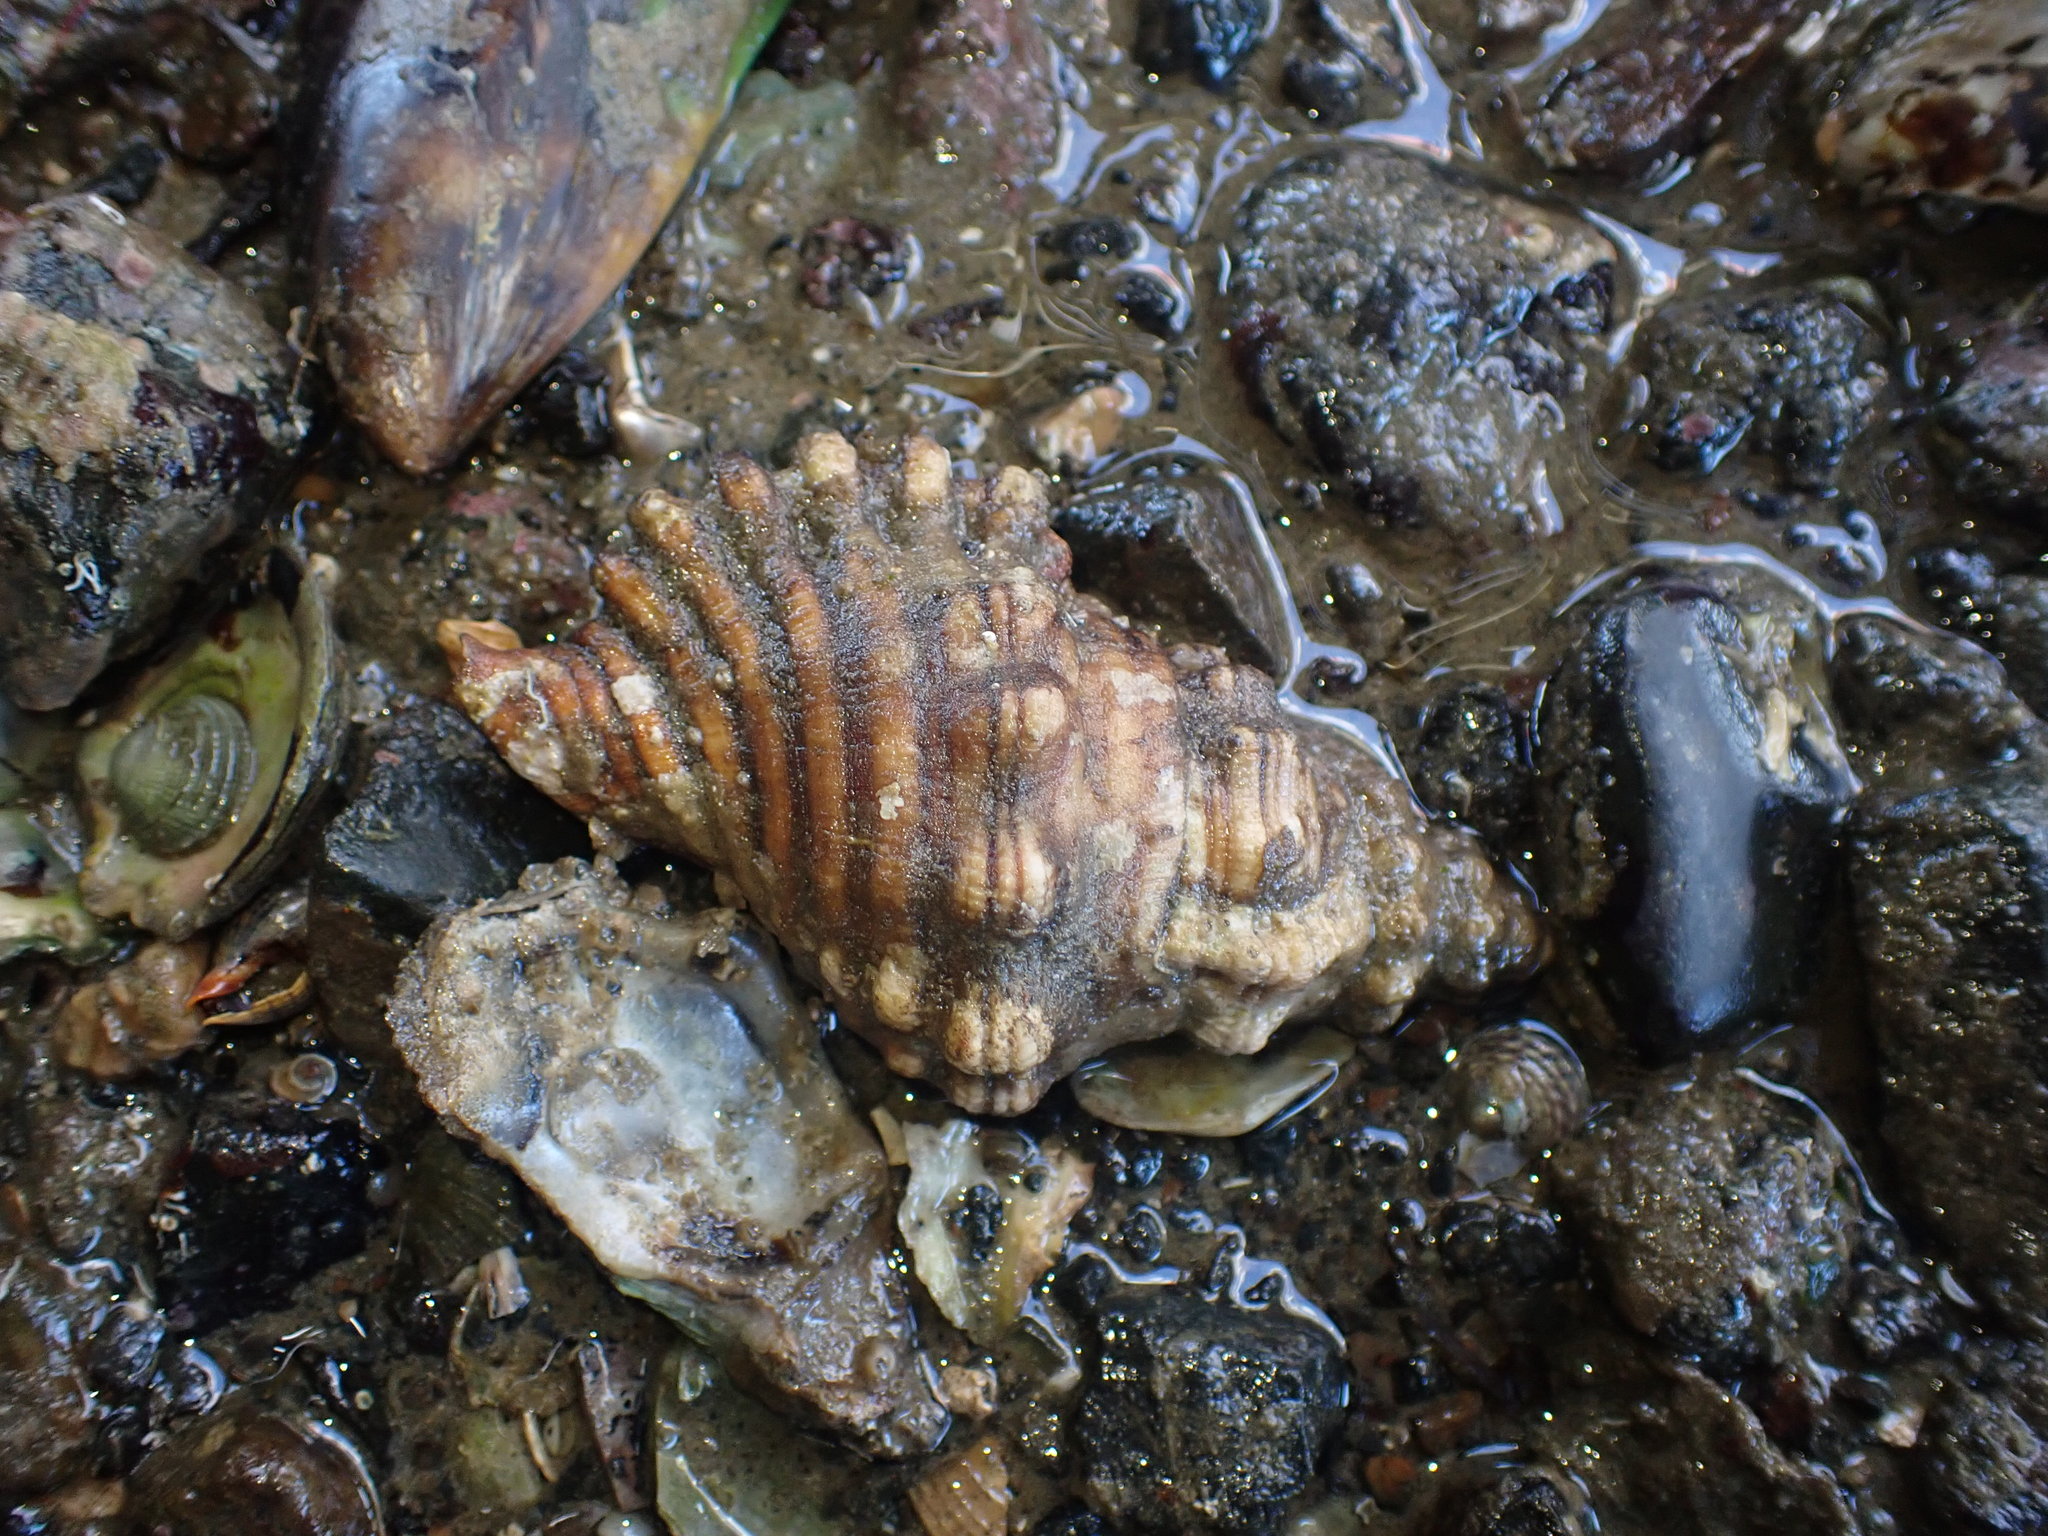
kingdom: Animalia
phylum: Mollusca
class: Gastropoda
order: Littorinimorpha
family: Cymatiidae
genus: Cabestana
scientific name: Cabestana spengleri
